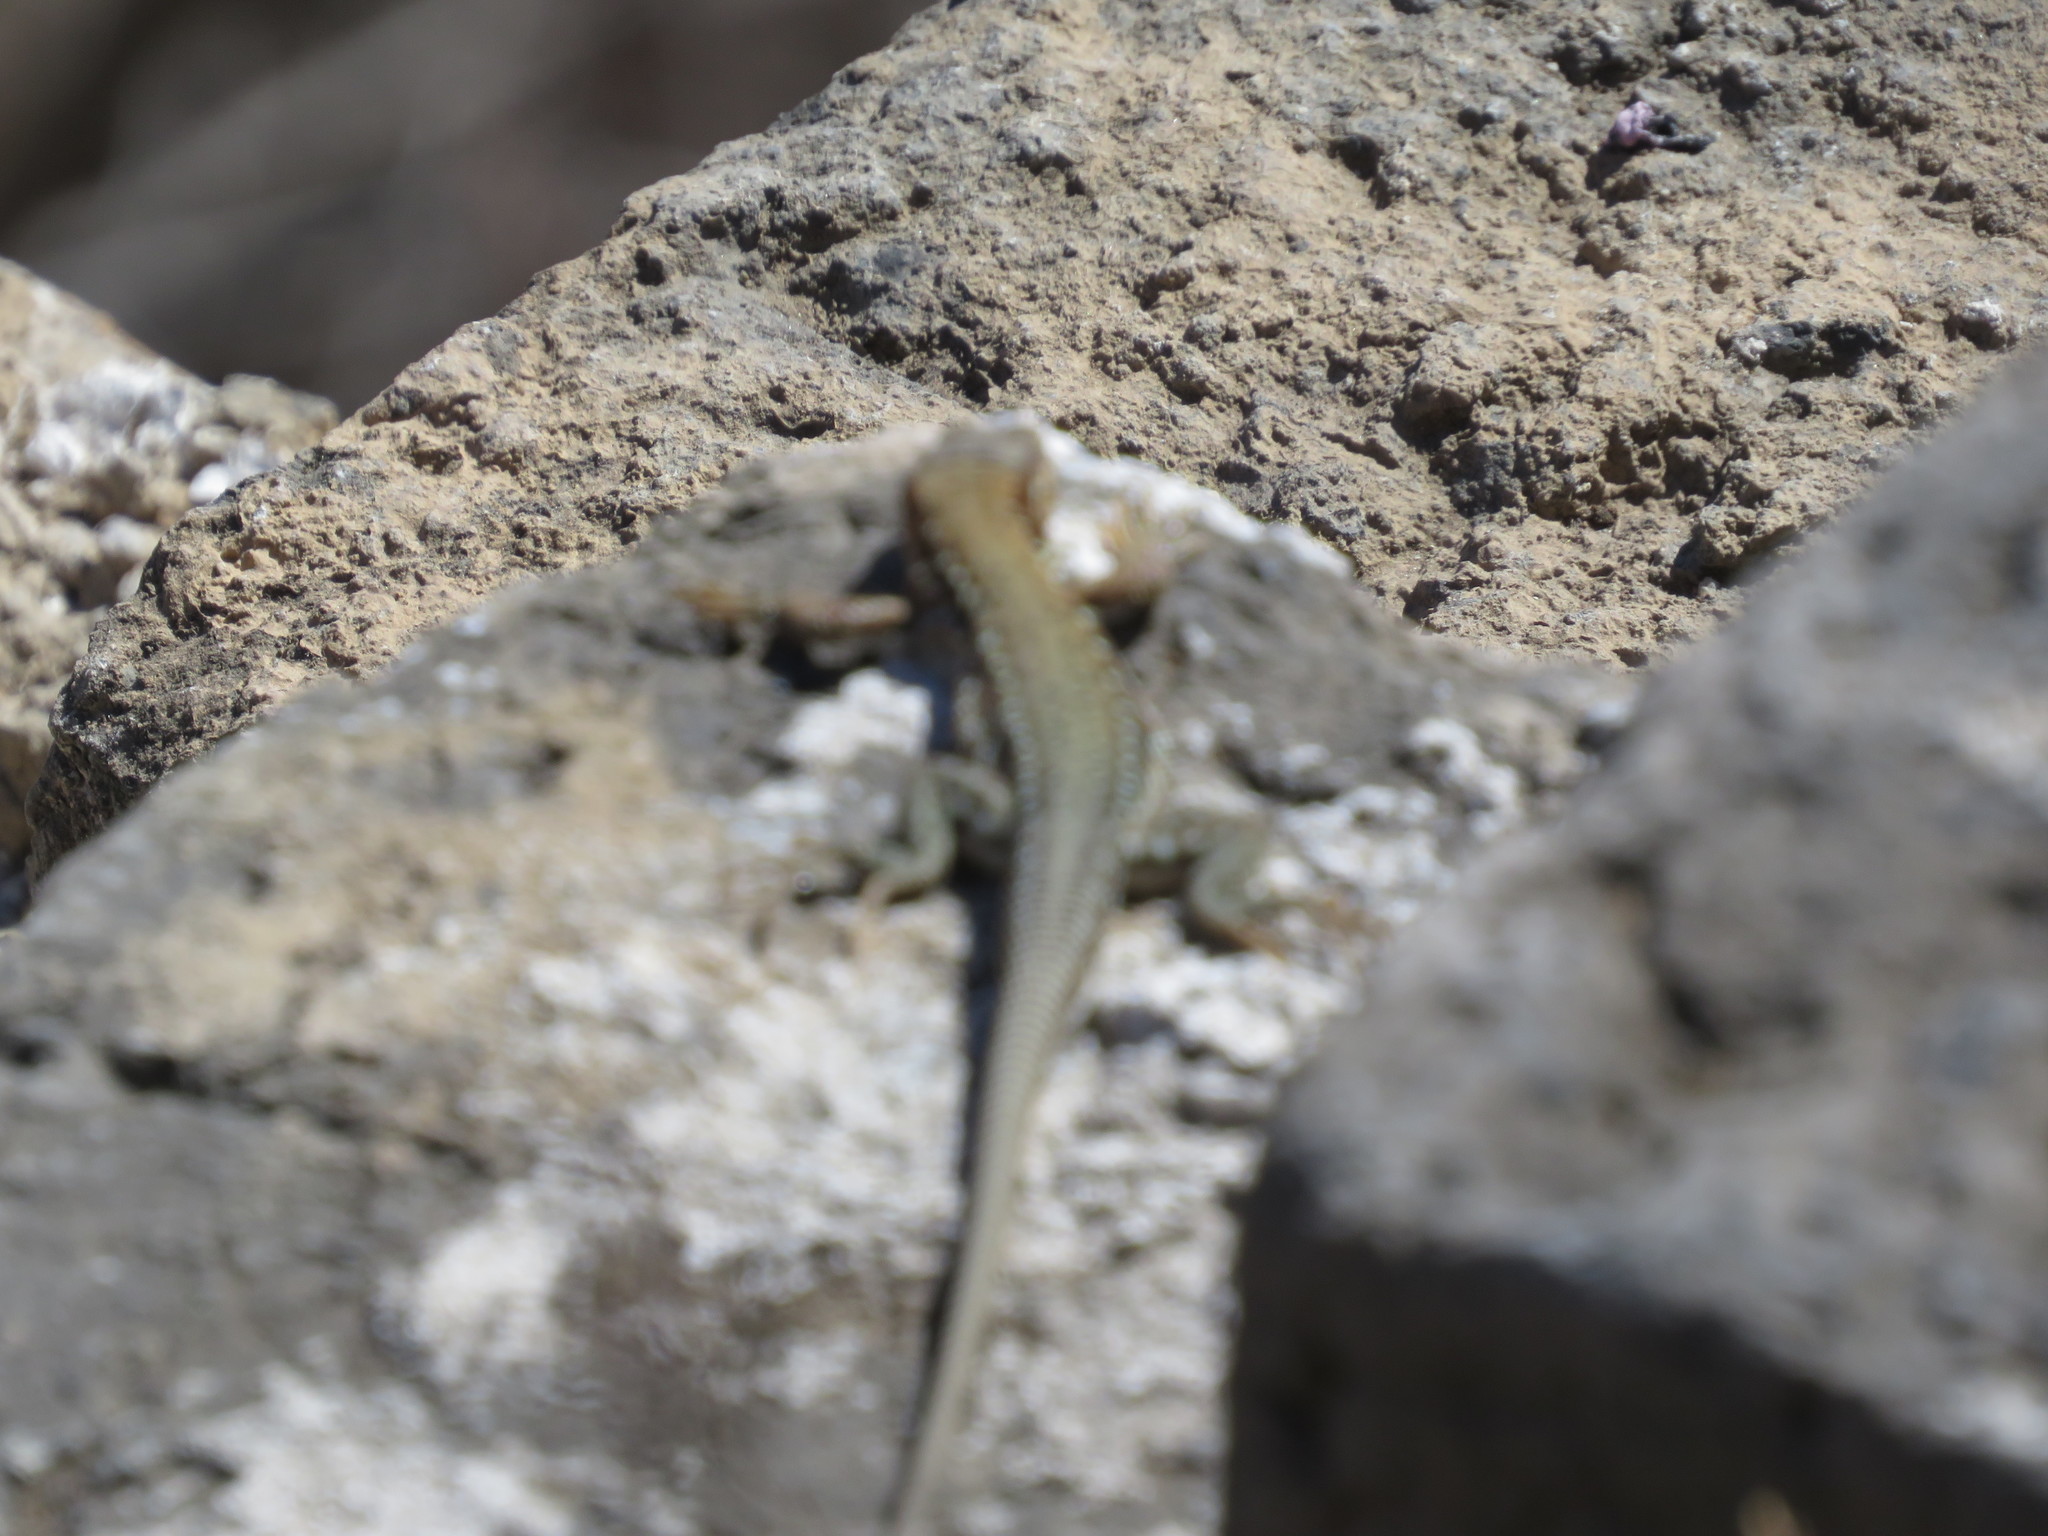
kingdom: Animalia
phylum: Chordata
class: Squamata
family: Lacertidae
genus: Eremias
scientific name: Eremias brenchleyi
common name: Ordos racerunner
